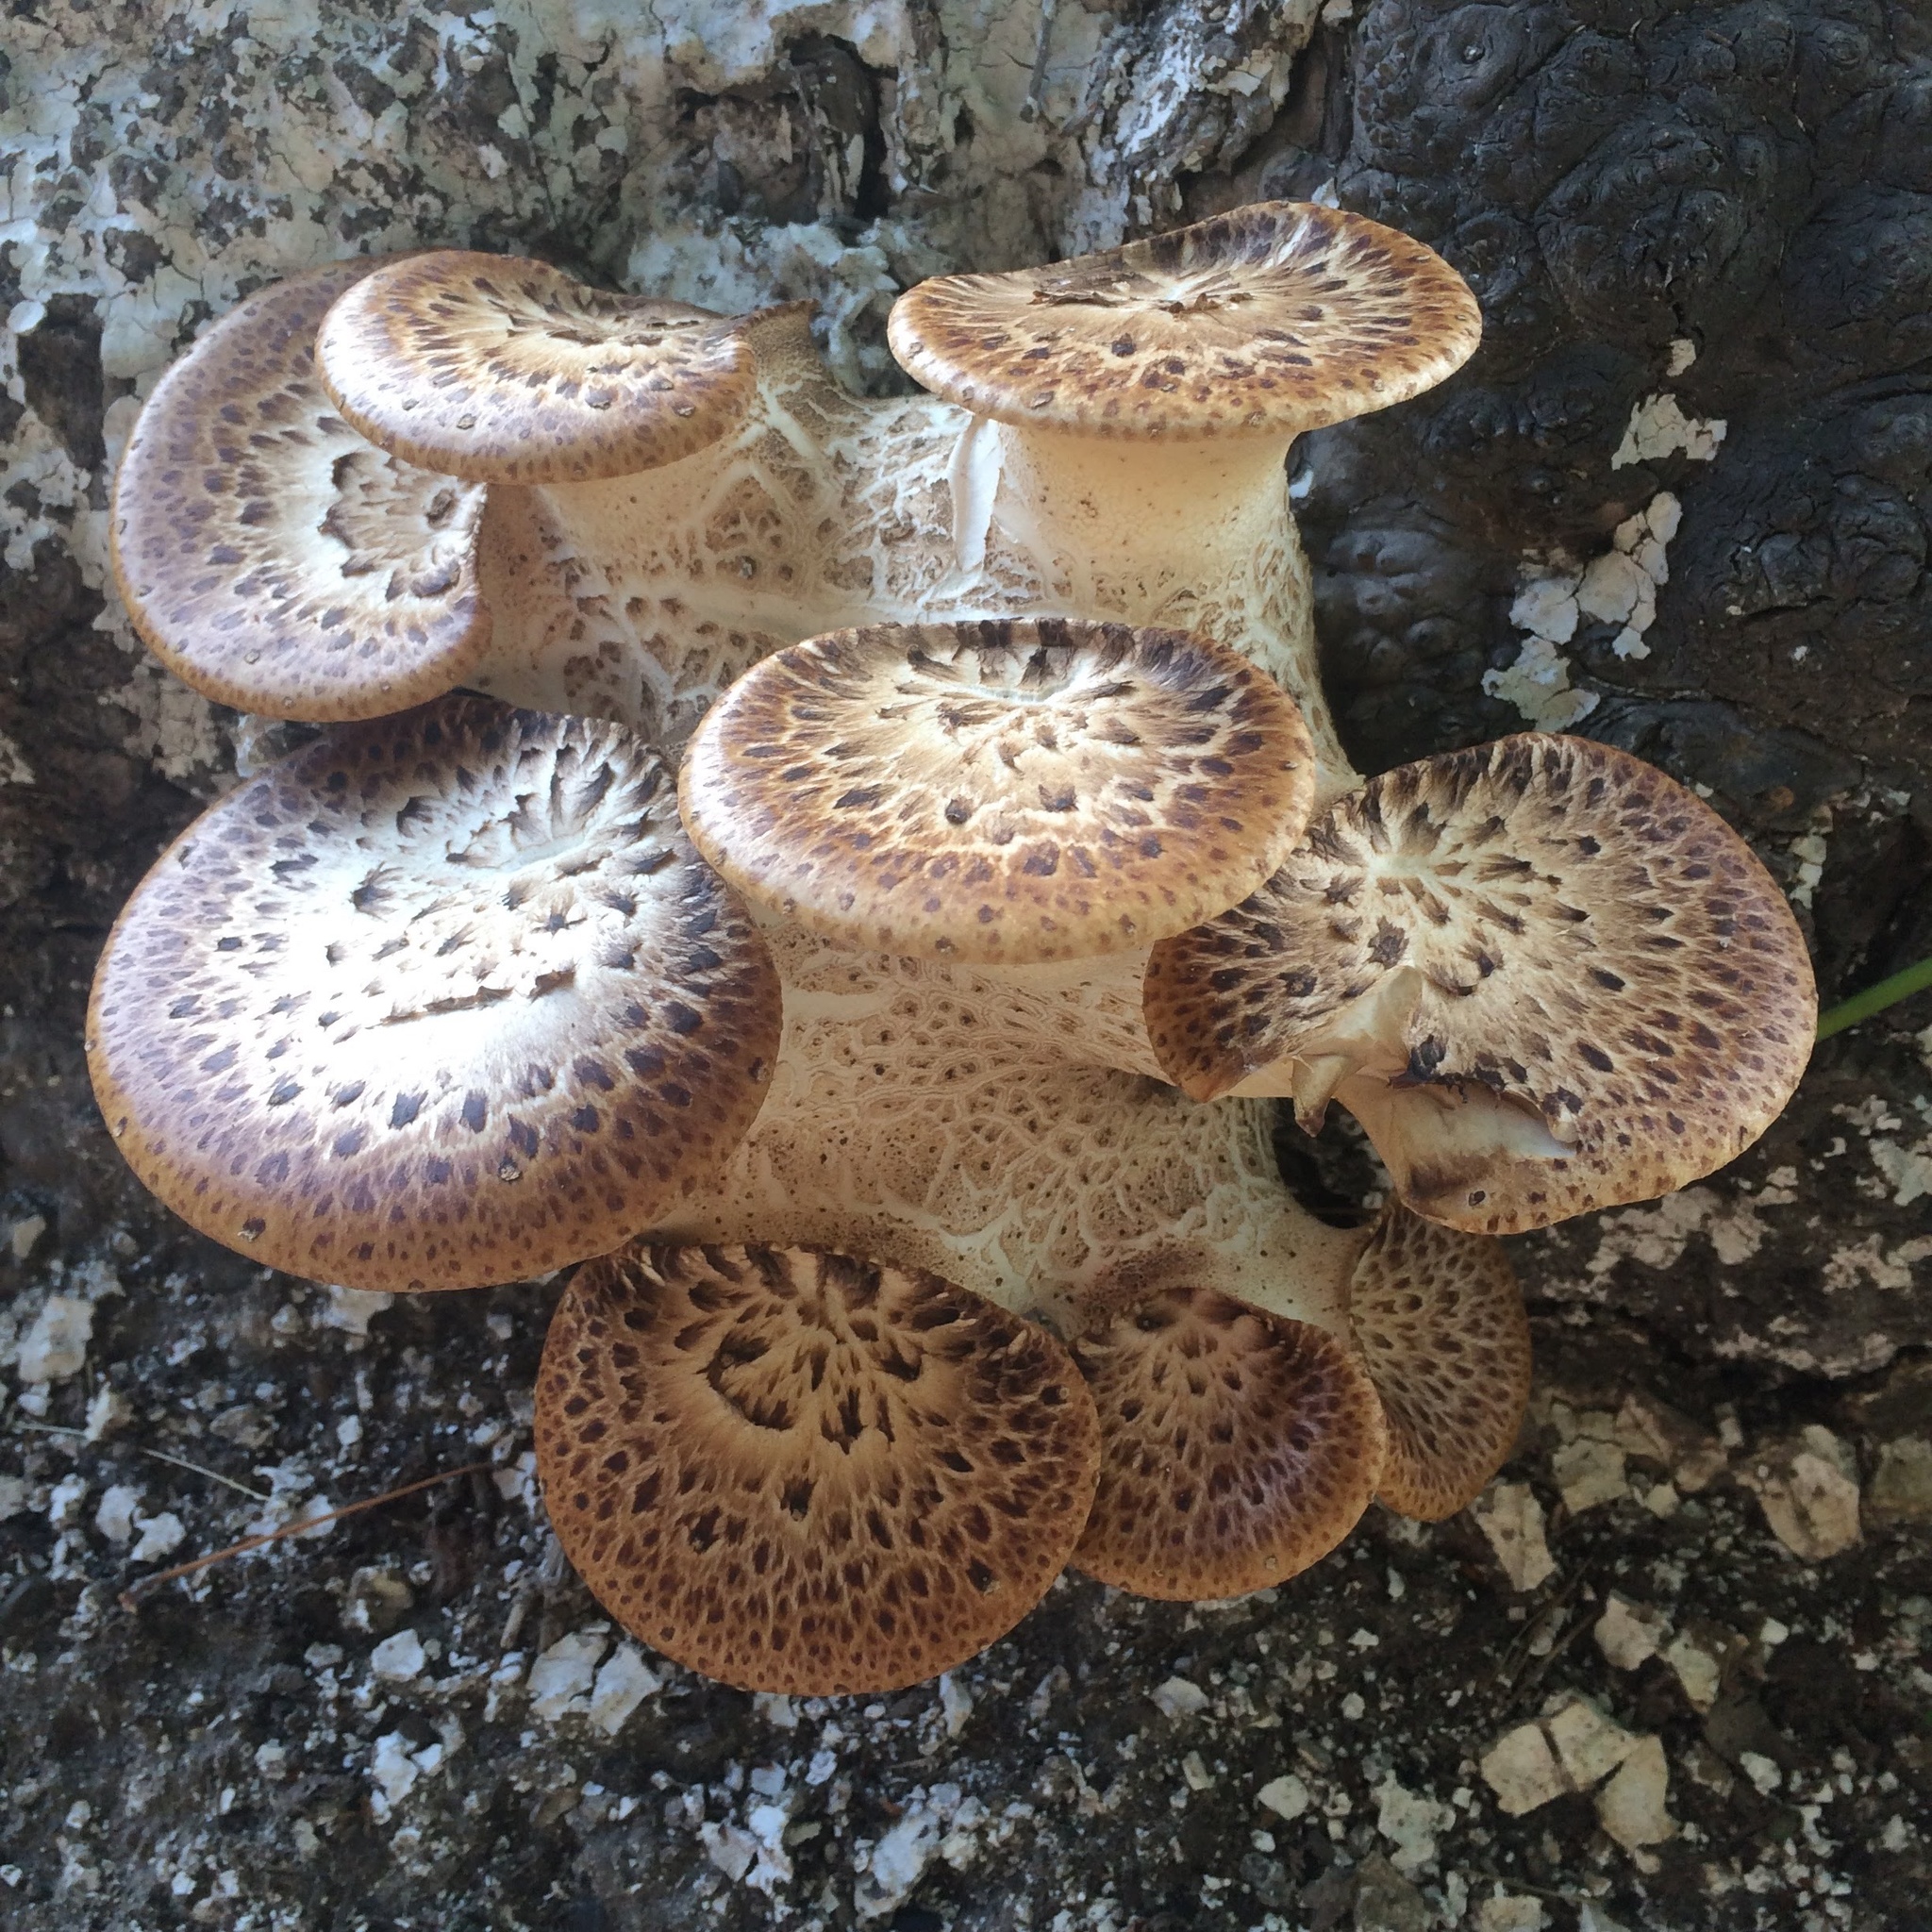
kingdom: Fungi
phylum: Basidiomycota
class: Agaricomycetes
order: Polyporales
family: Polyporaceae
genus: Cerioporus
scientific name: Cerioporus squamosus
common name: Dryad's saddle
